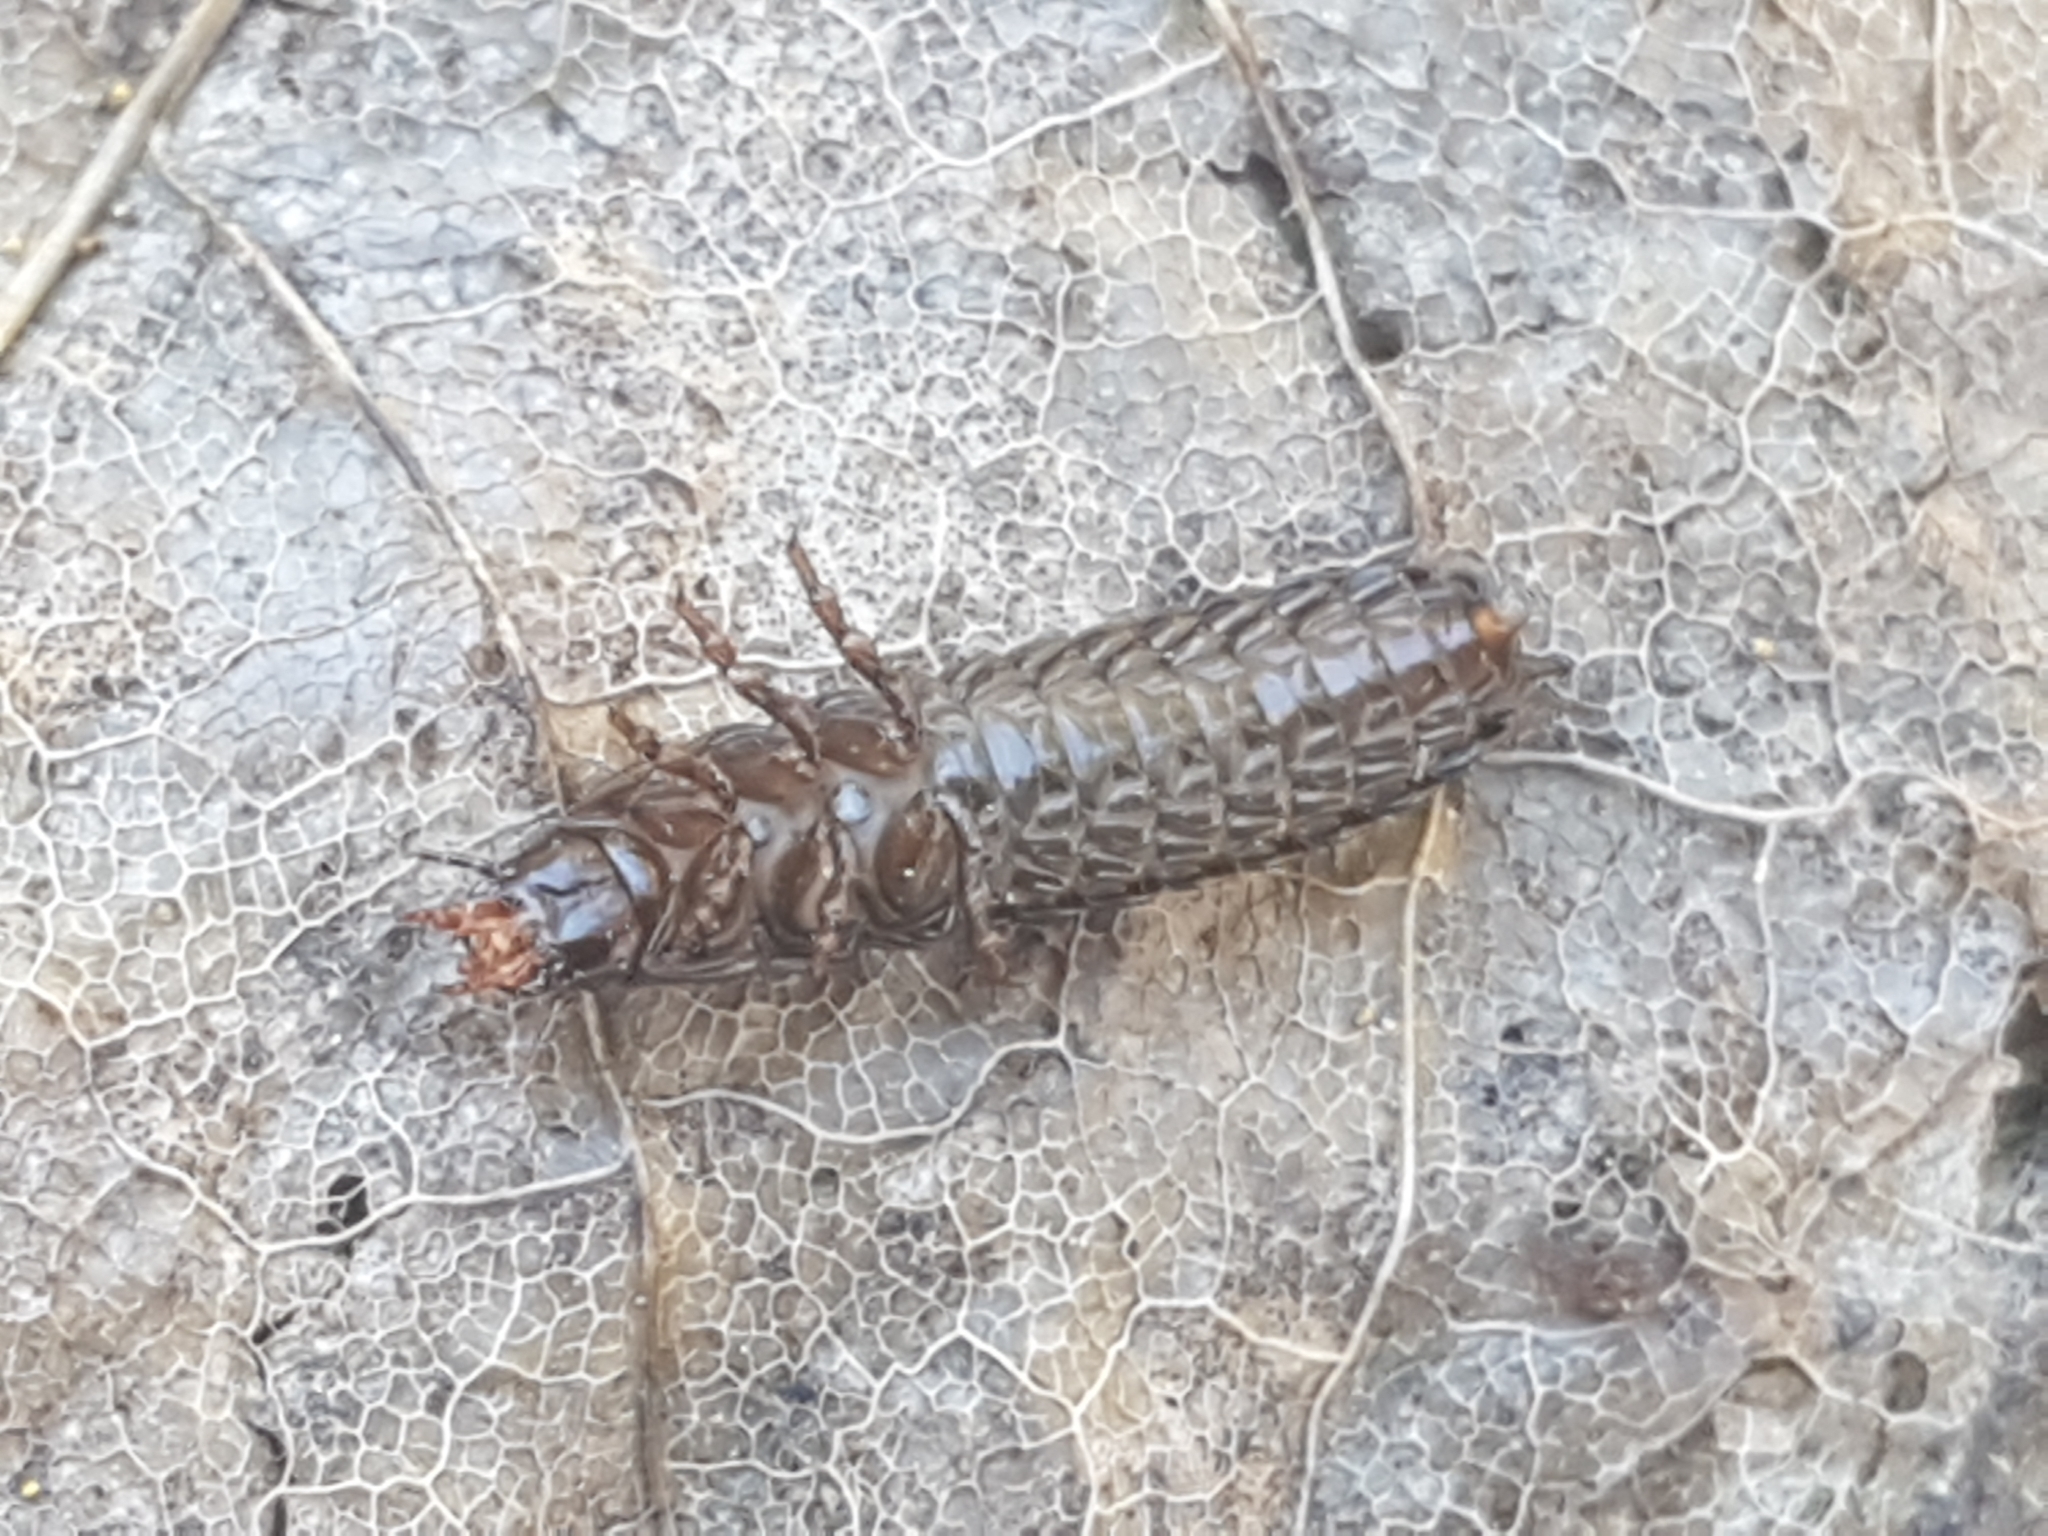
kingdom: Animalia
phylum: Arthropoda
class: Insecta
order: Coleoptera
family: Carabidae
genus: Carabus
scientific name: Carabus
